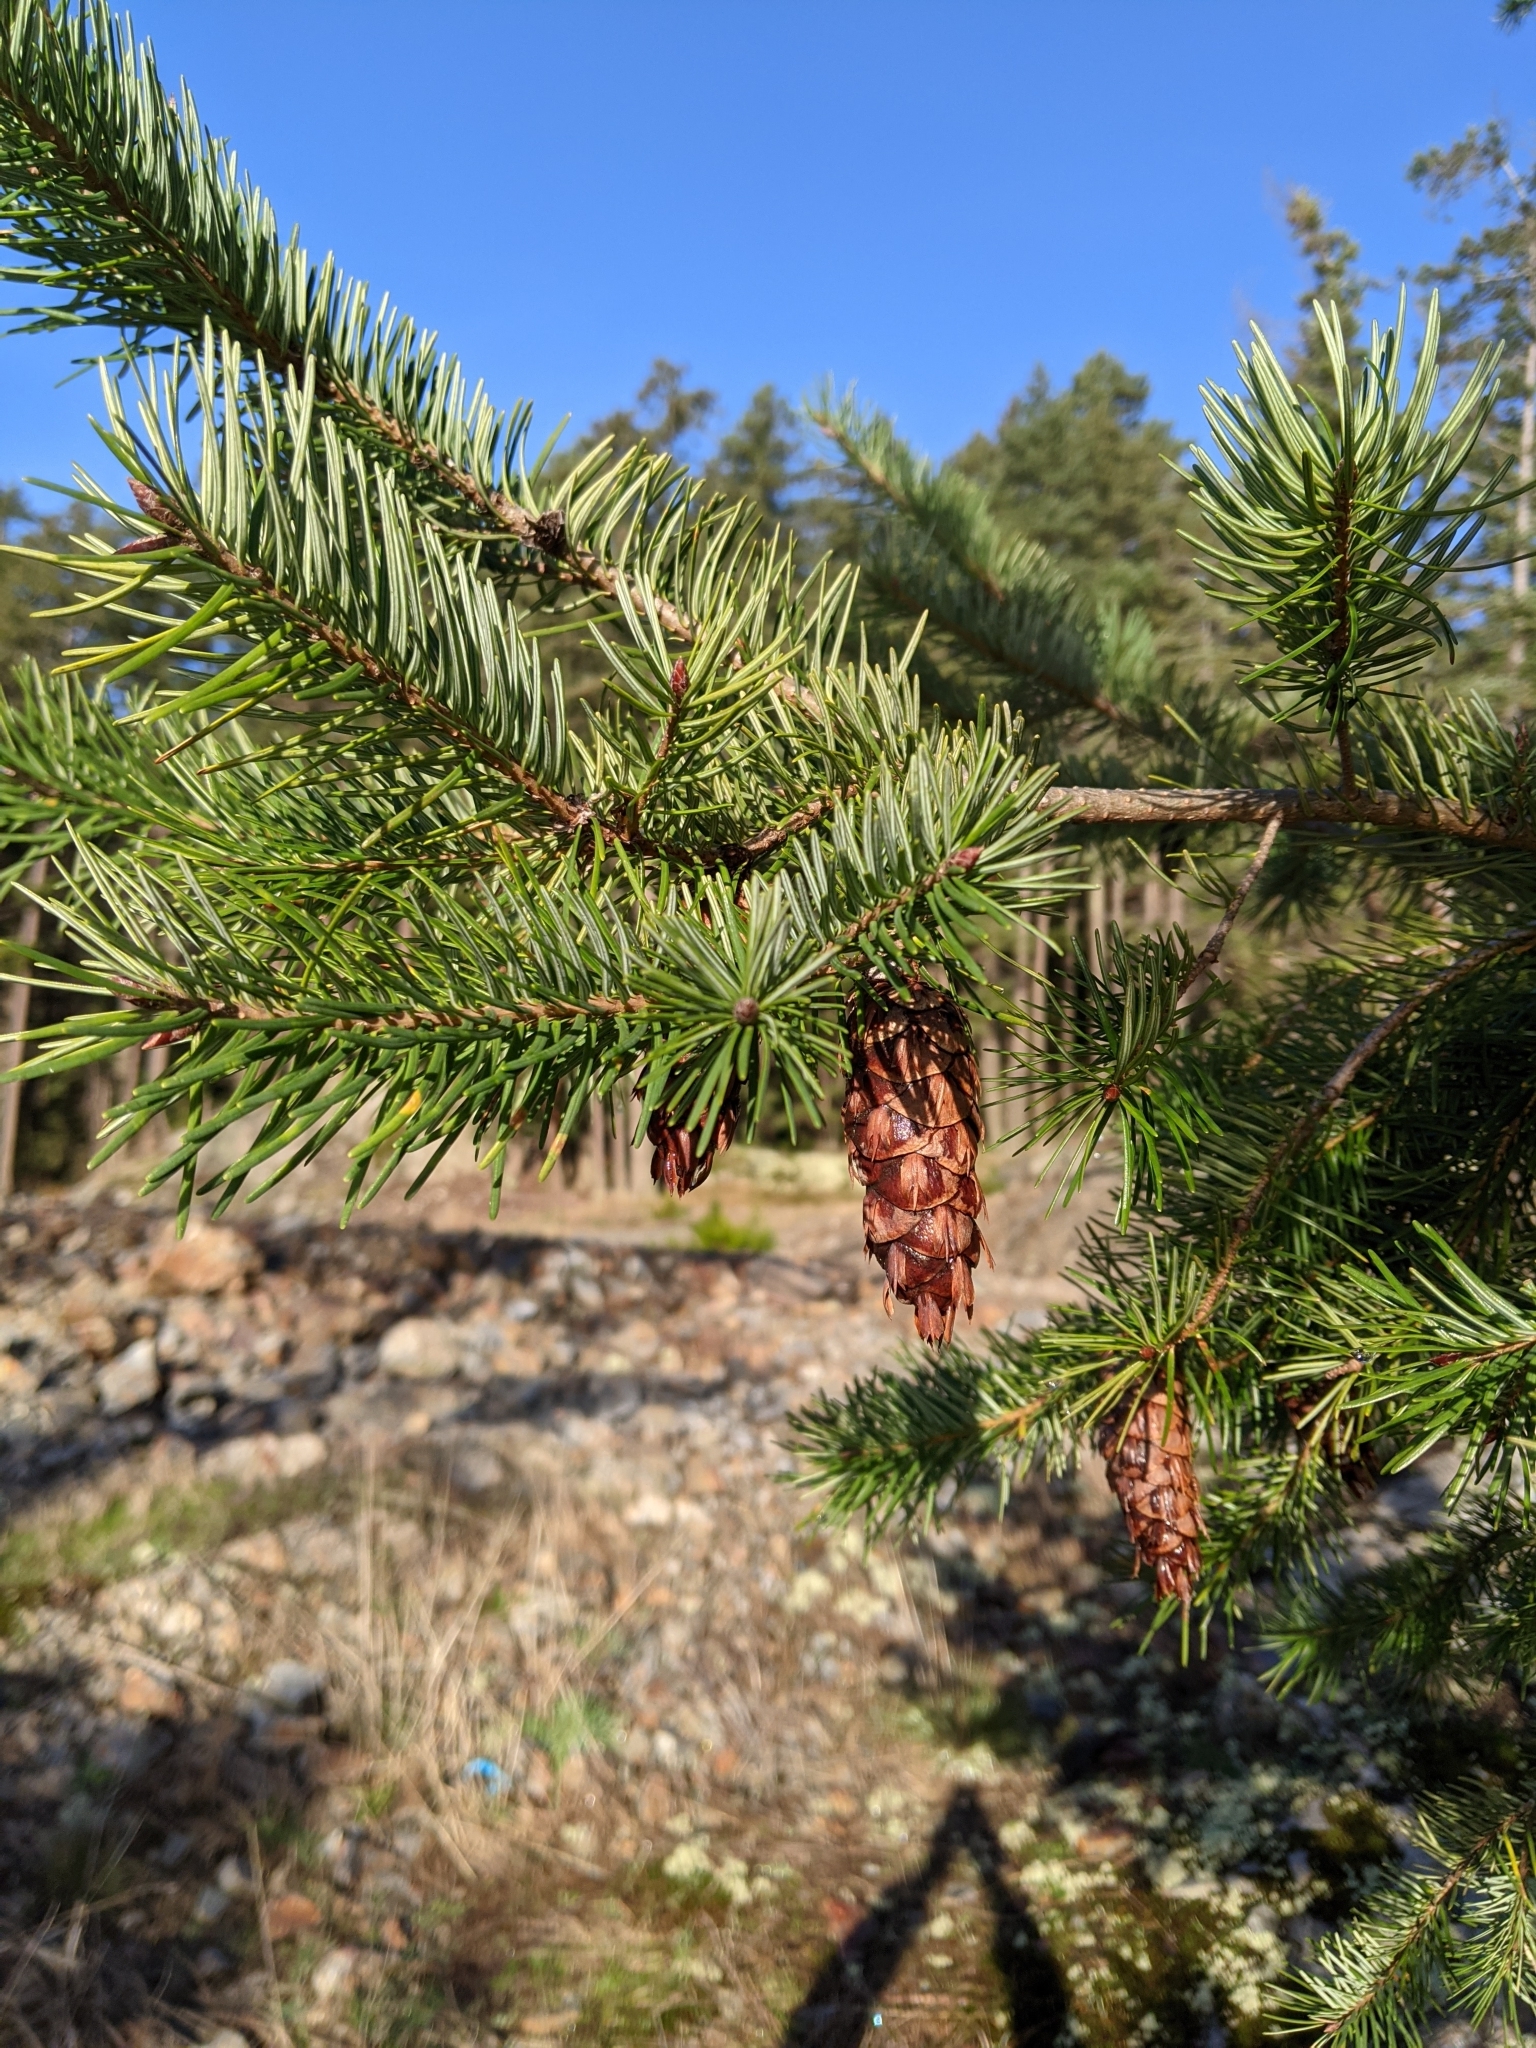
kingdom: Plantae
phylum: Tracheophyta
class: Pinopsida
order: Pinales
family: Pinaceae
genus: Pseudotsuga
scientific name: Pseudotsuga menziesii
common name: Douglas fir
